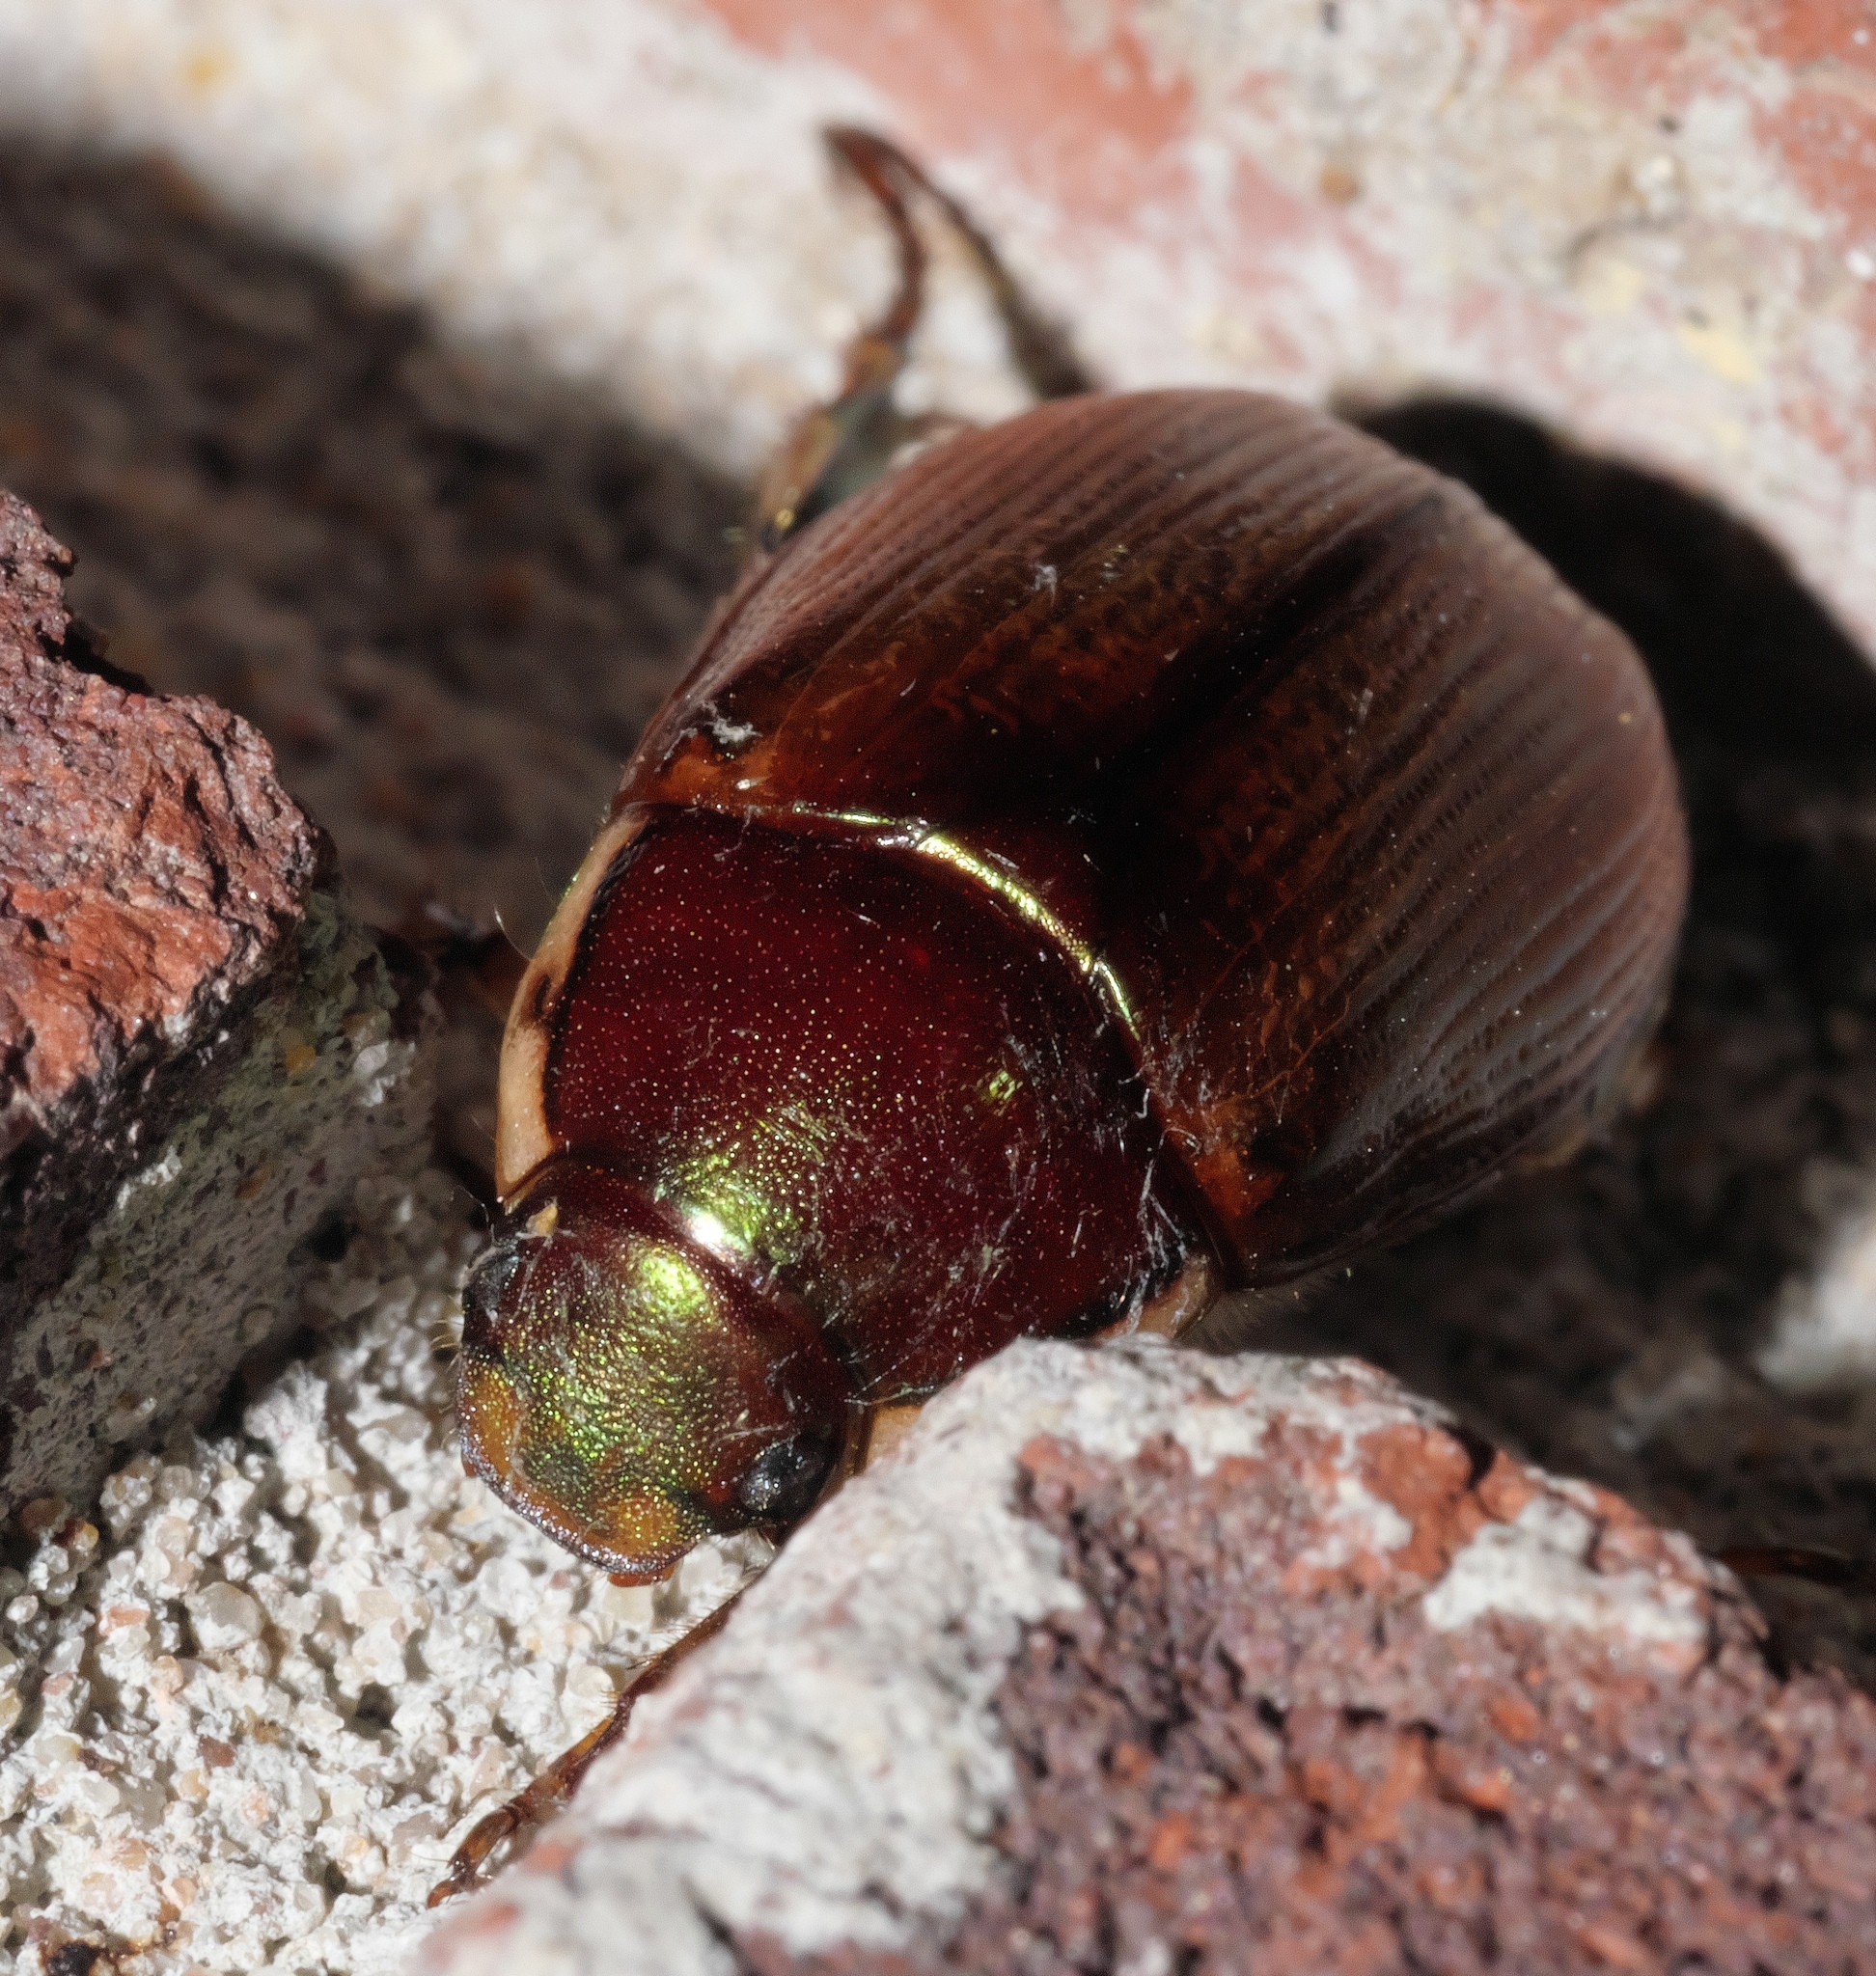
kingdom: Animalia
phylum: Arthropoda
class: Insecta
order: Coleoptera
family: Scarabaeidae
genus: Callistethus
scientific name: Callistethus marginatus
